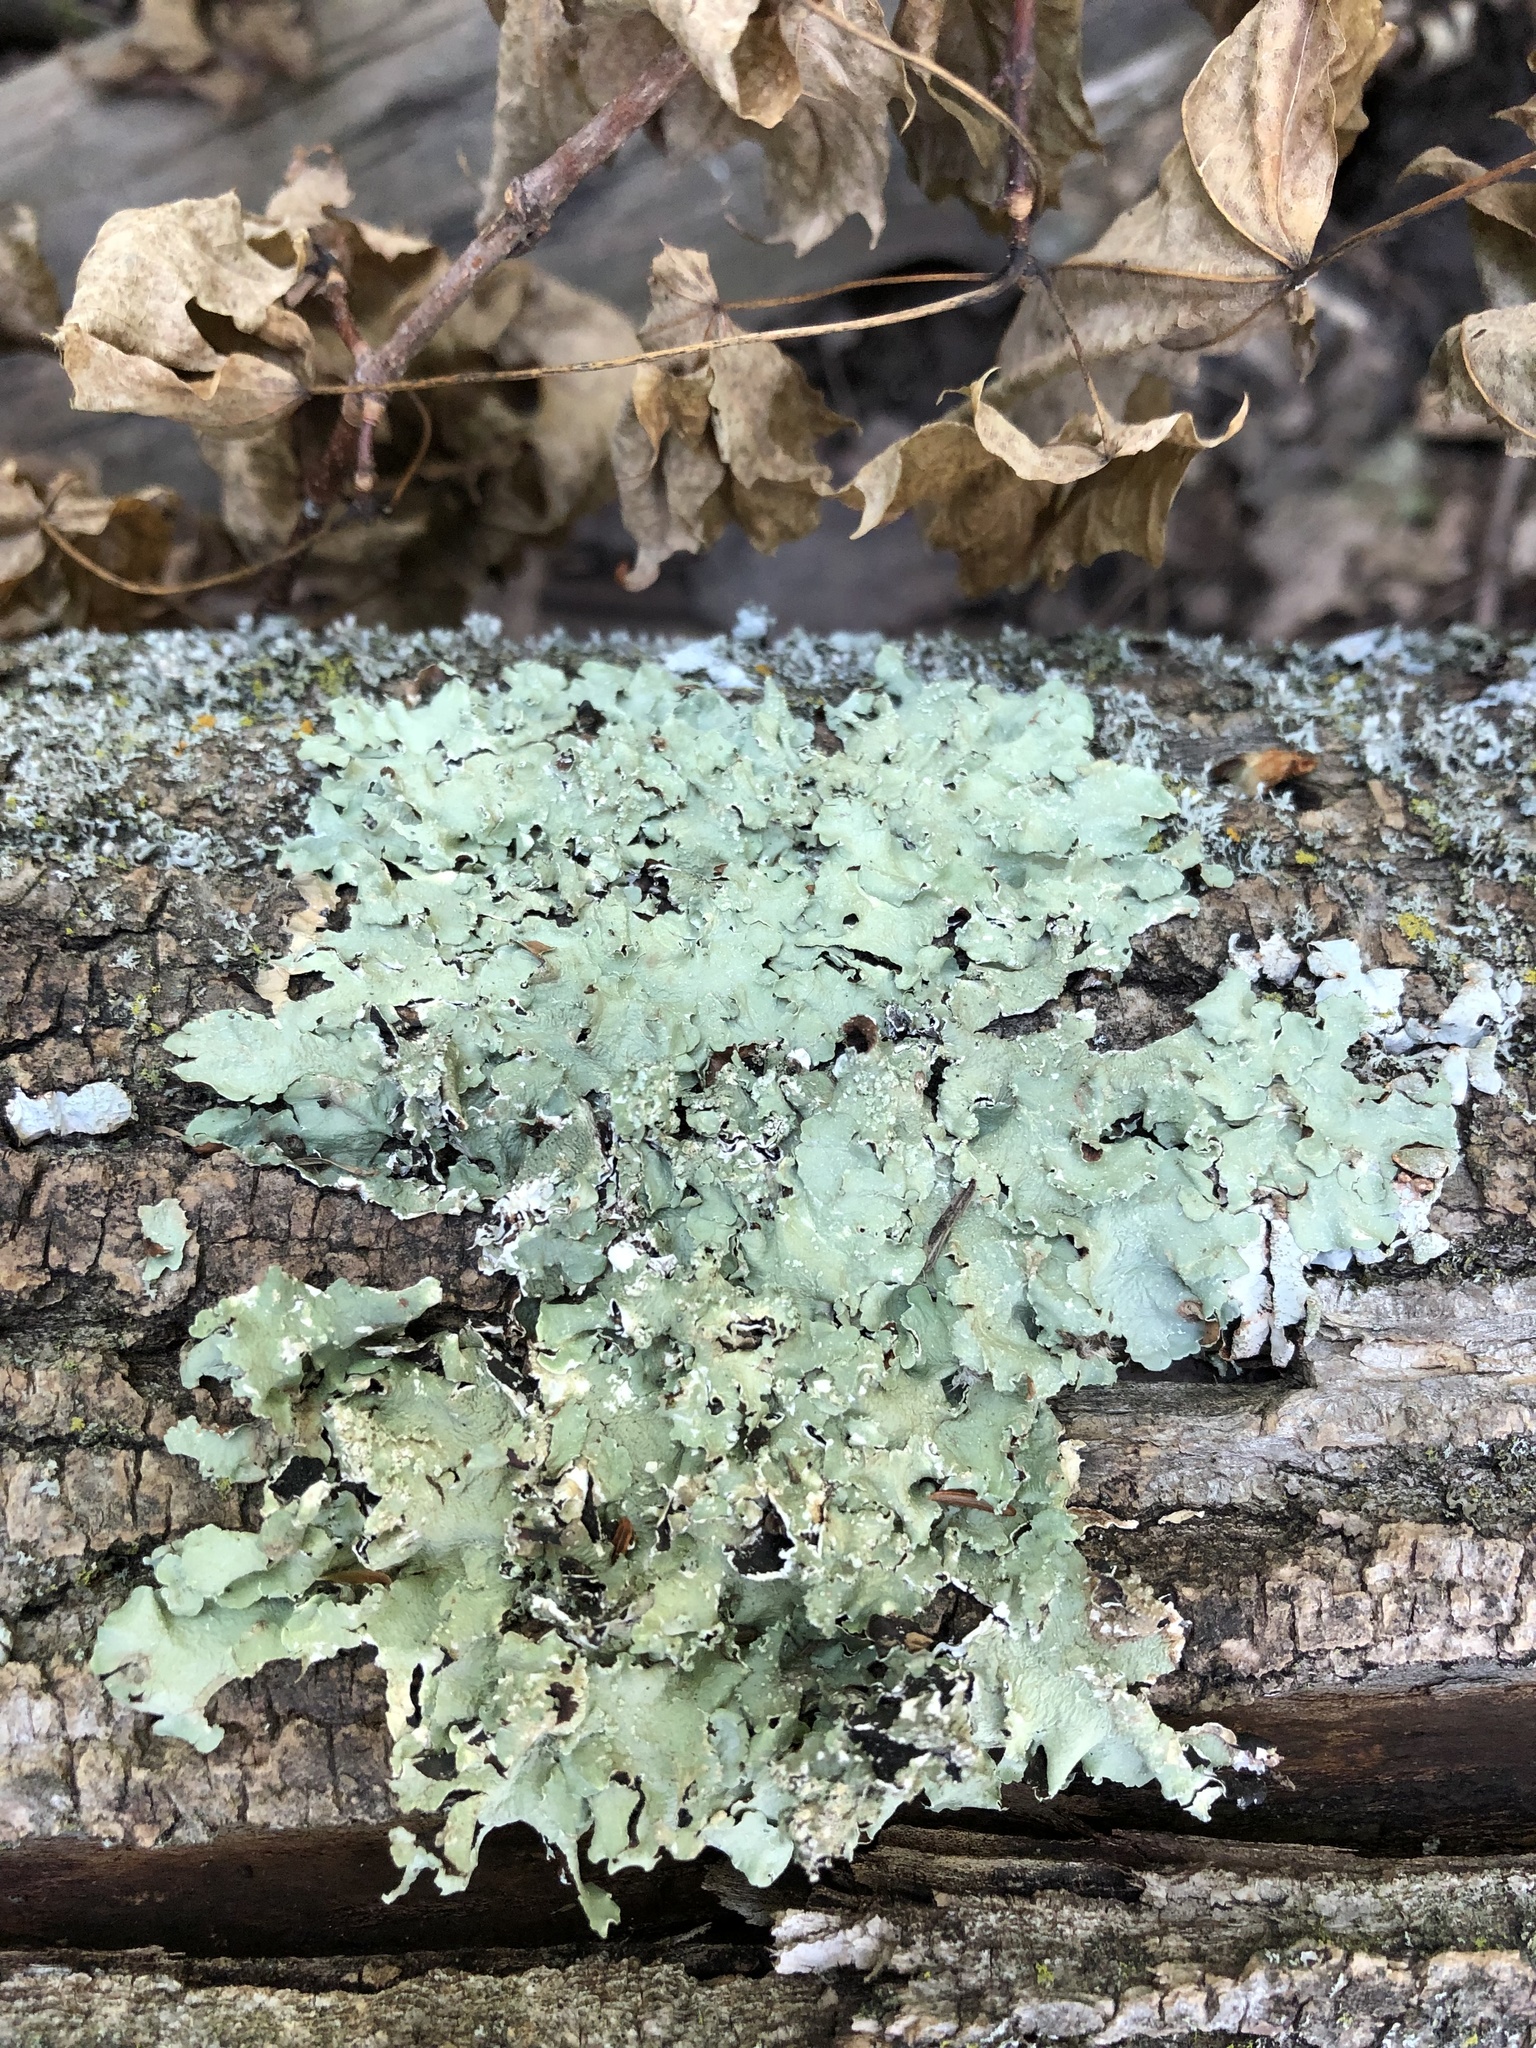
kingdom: Fungi
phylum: Ascomycota
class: Lecanoromycetes
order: Lecanorales
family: Parmeliaceae
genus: Flavopunctelia
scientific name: Flavopunctelia flaventior
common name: Speckled greenshield
